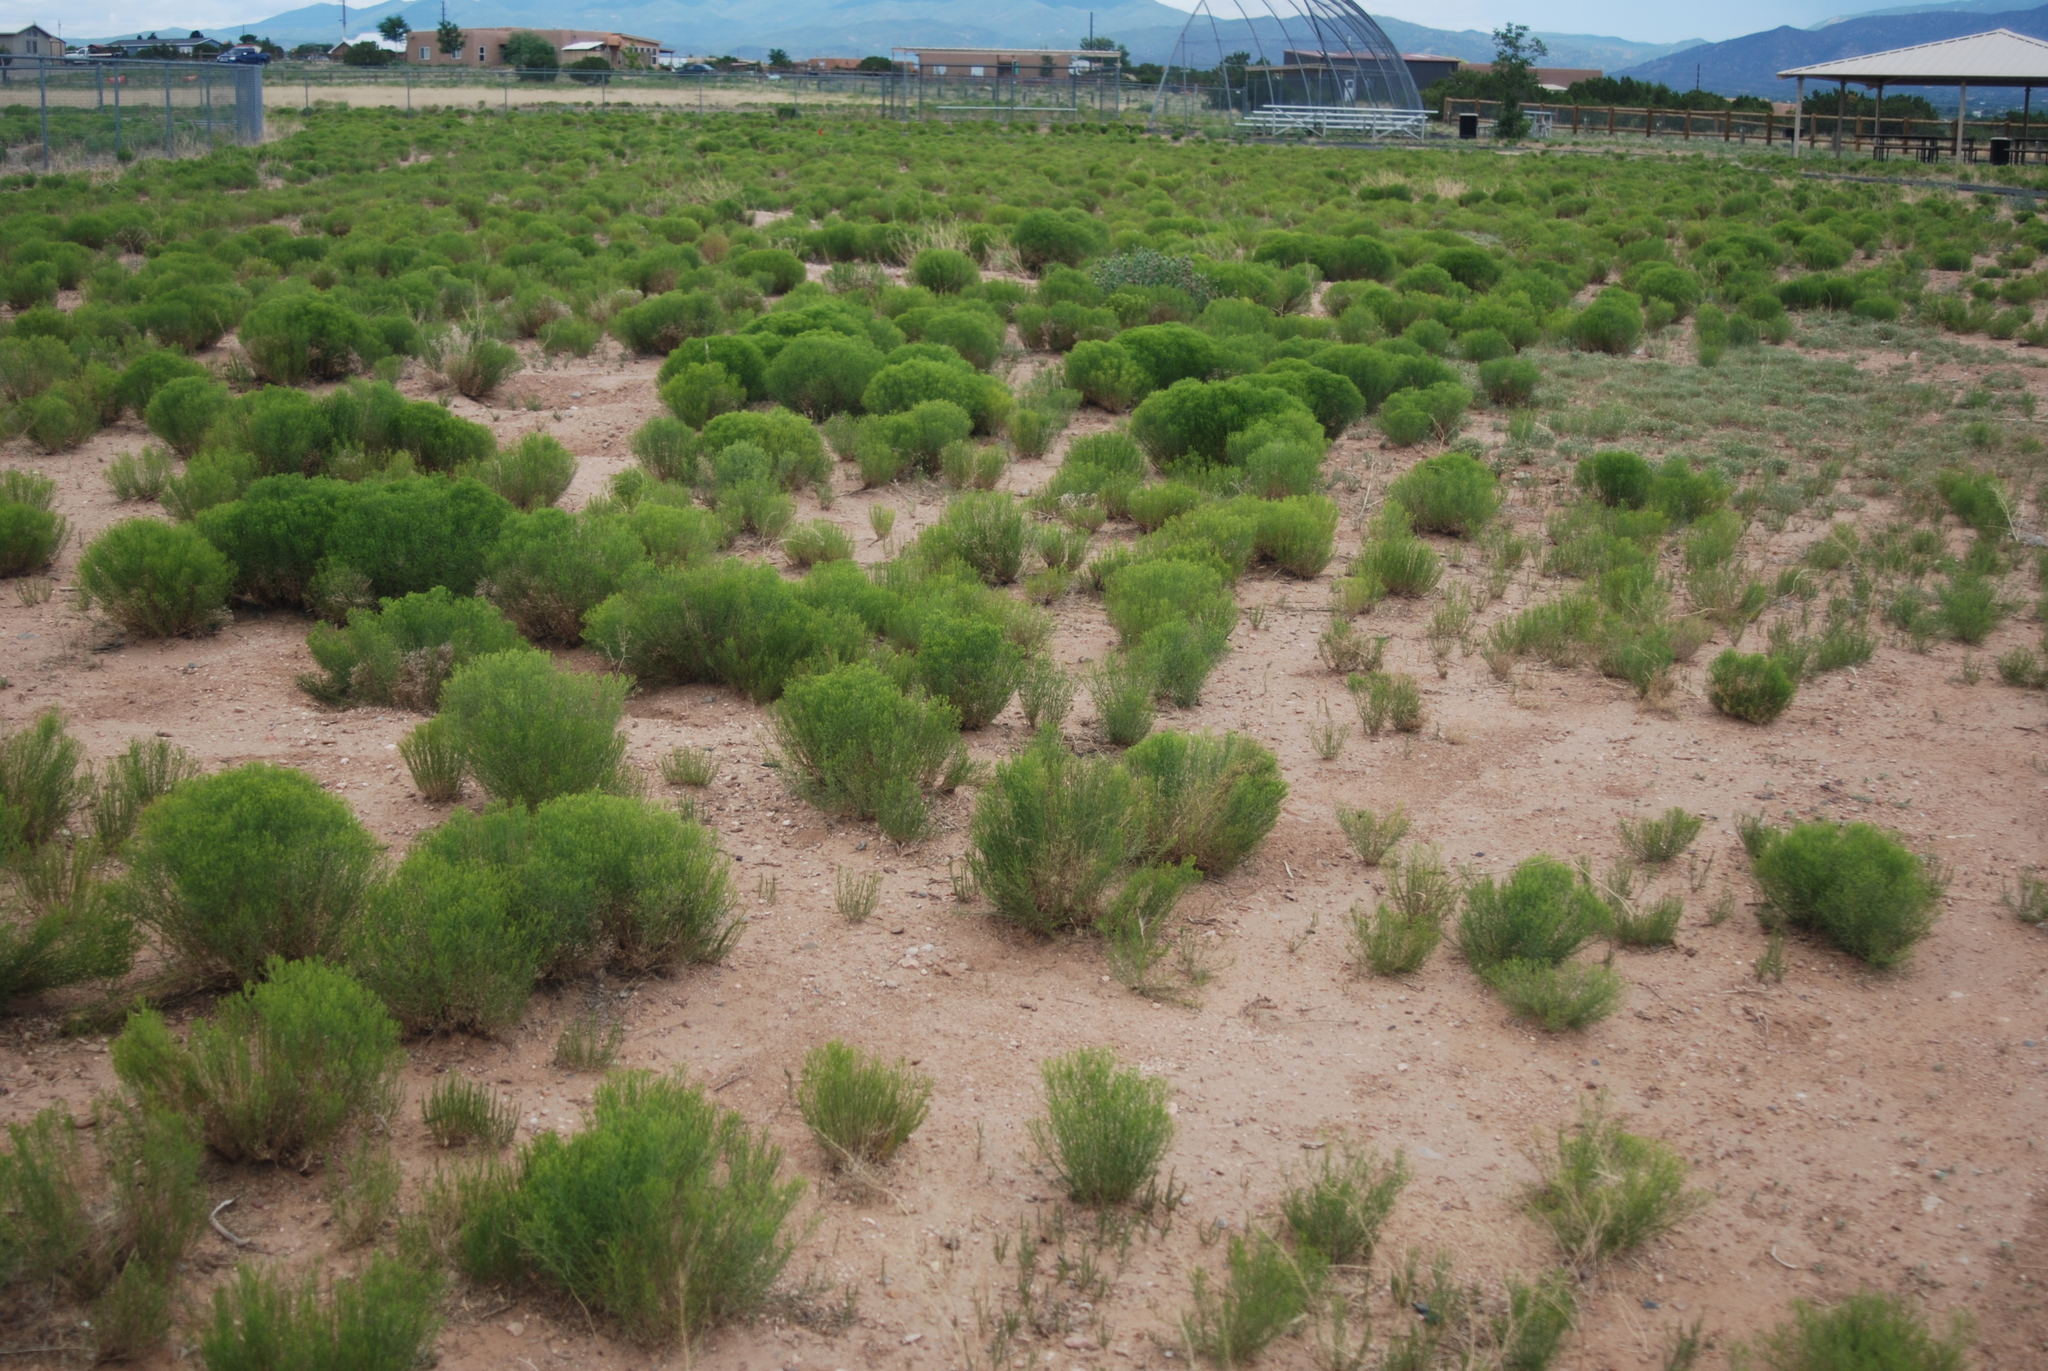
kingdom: Plantae
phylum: Tracheophyta
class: Magnoliopsida
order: Asterales
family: Asteraceae
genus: Gutierrezia
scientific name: Gutierrezia sarothrae
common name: Broom snakeweed
